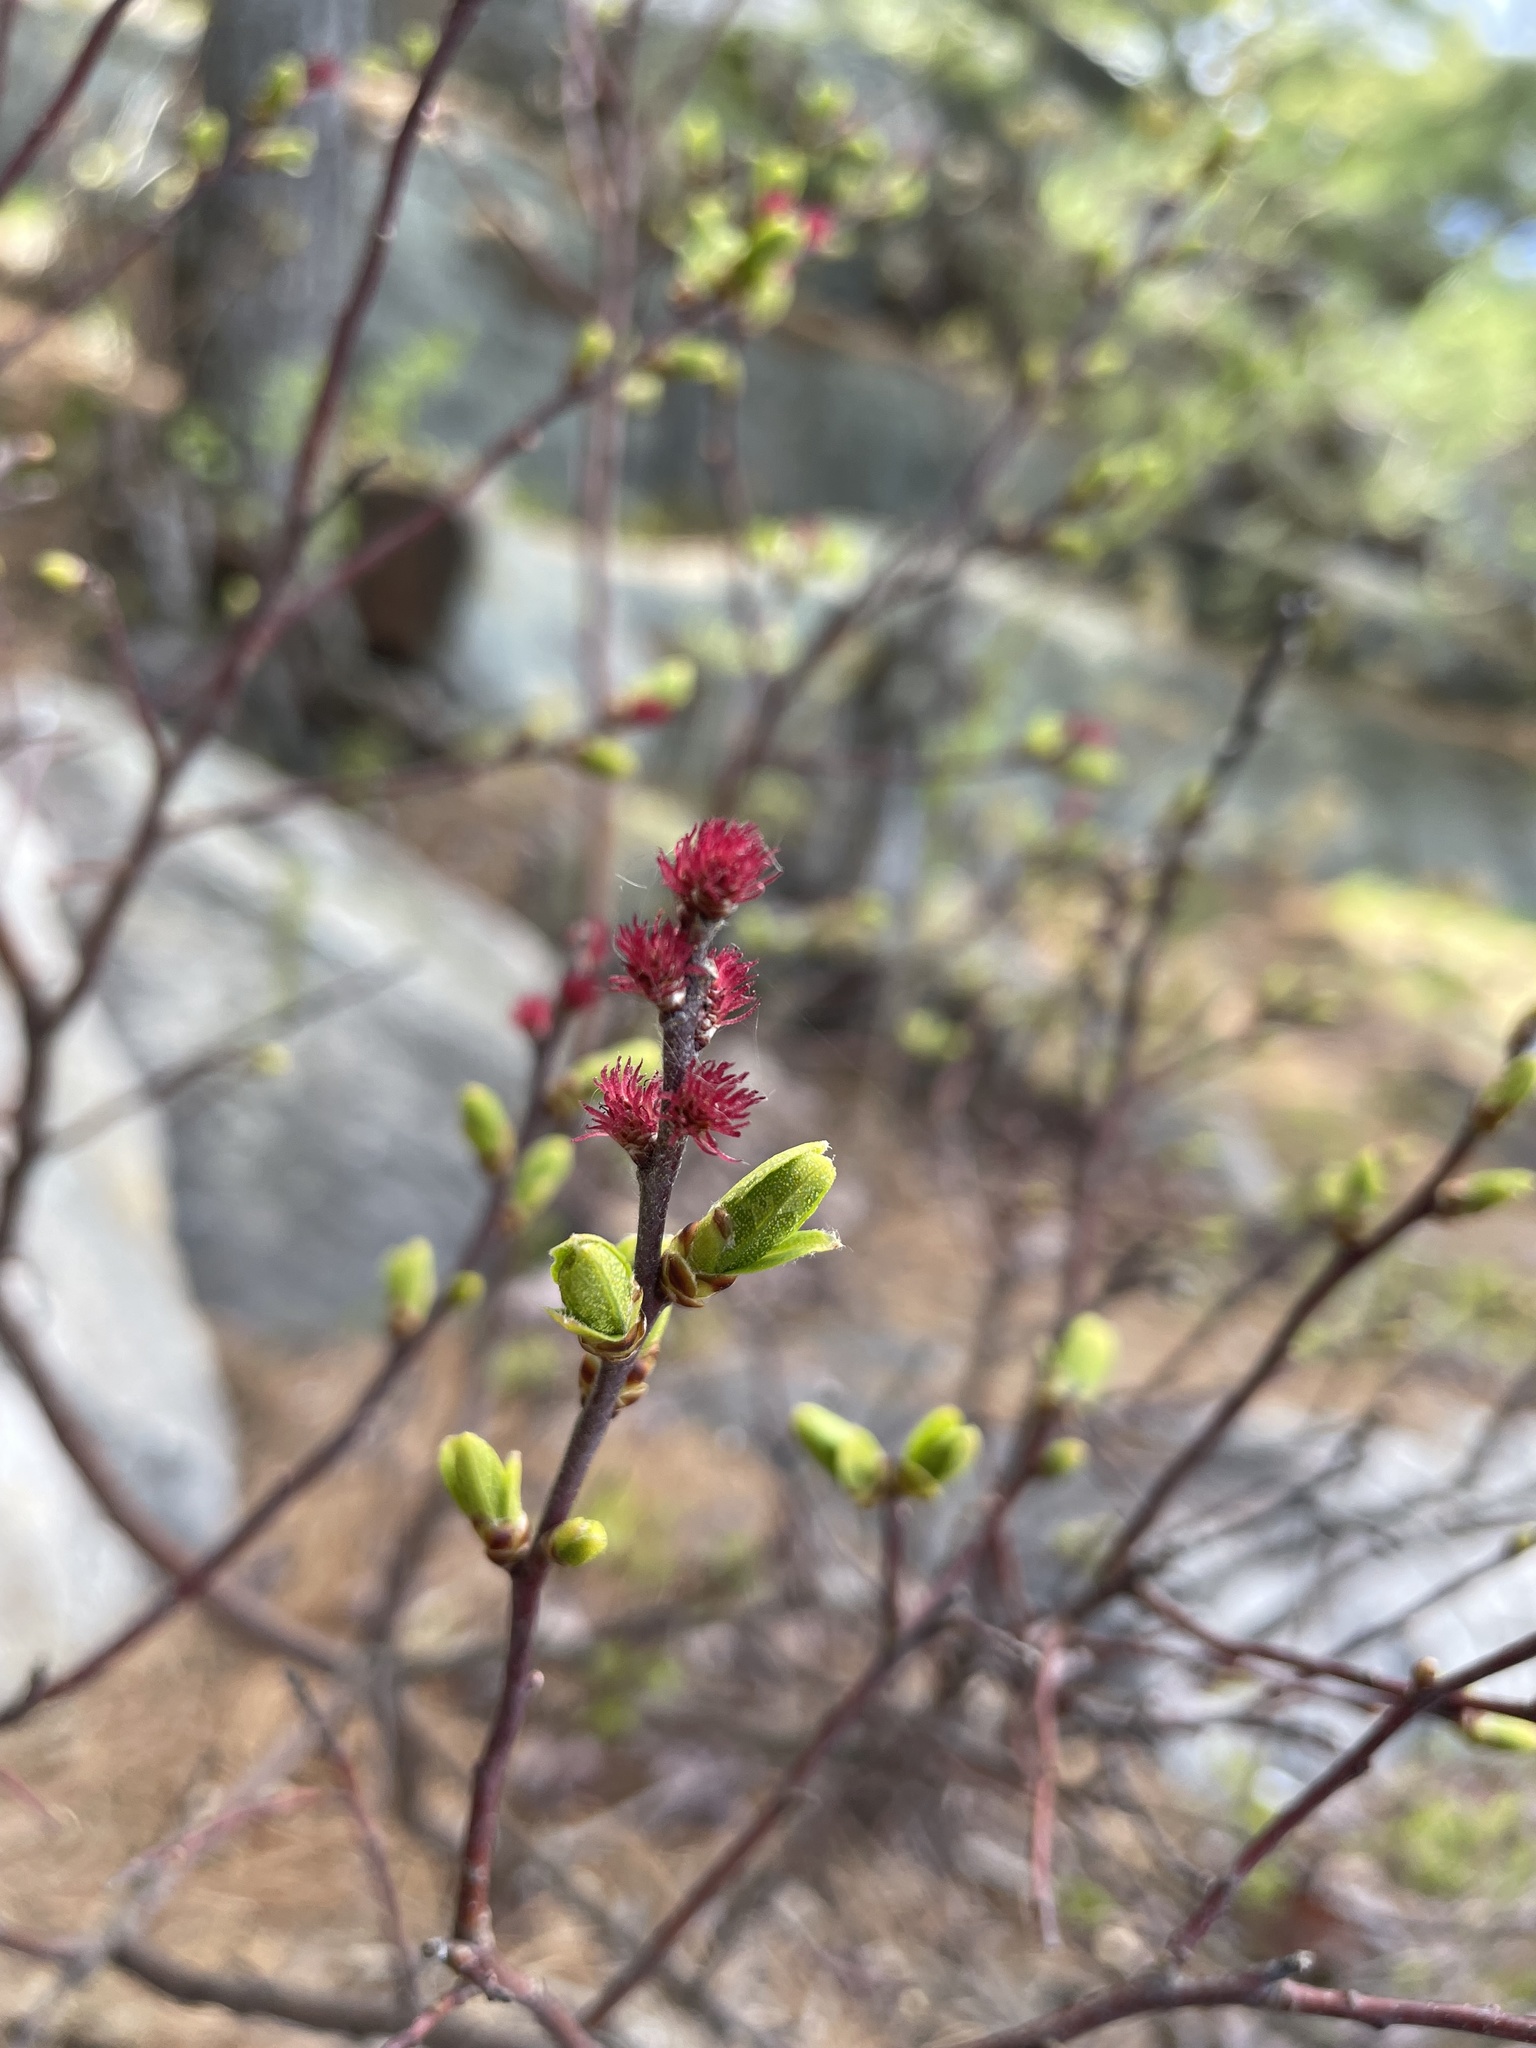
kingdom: Plantae
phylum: Tracheophyta
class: Magnoliopsida
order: Fagales
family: Myricaceae
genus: Myrica
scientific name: Myrica gale
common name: Sweet gale
